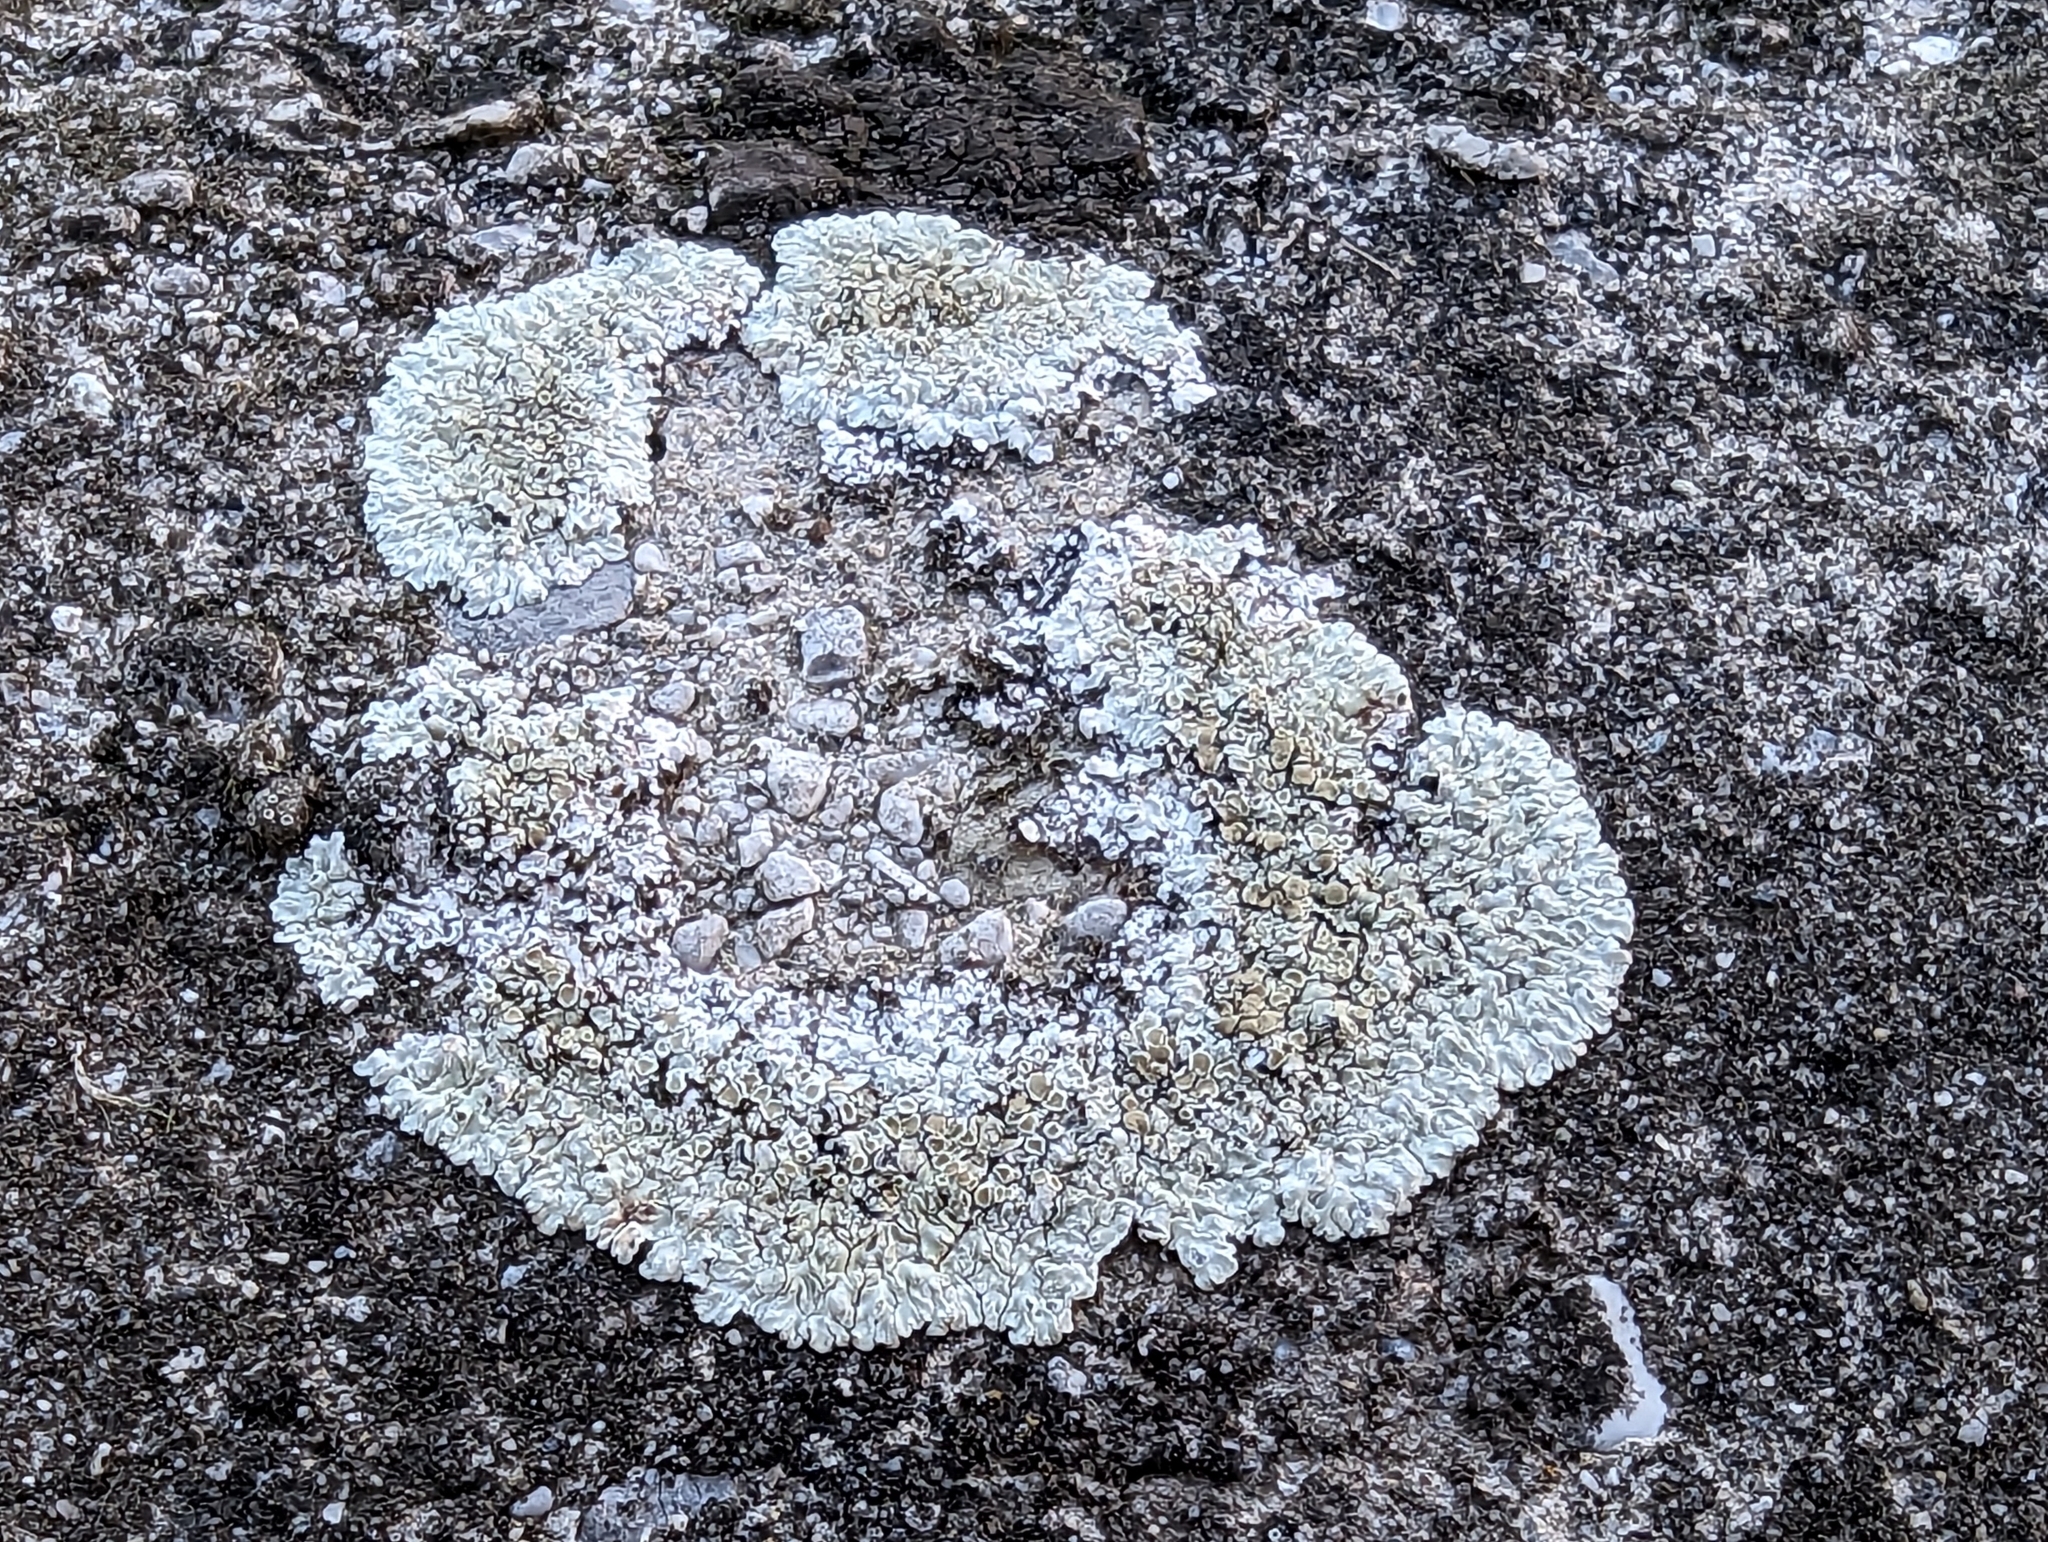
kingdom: Fungi
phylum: Ascomycota
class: Lecanoromycetes
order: Lecanorales
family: Lecanoraceae
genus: Protoparmeliopsis
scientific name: Protoparmeliopsis muralis
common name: Stonewall rim lichen
